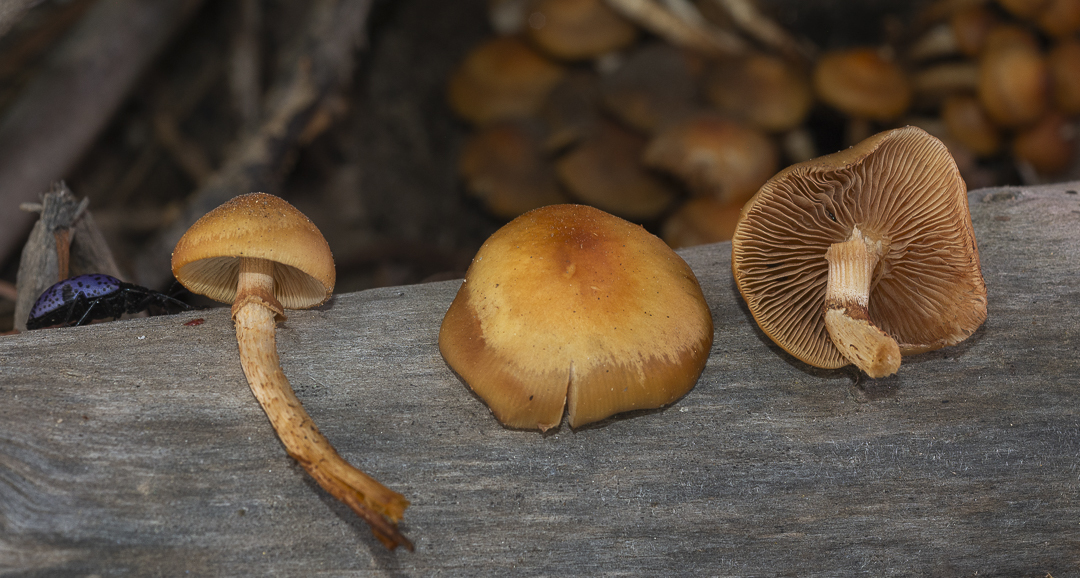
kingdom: Fungi
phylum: Basidiomycota
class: Agaricomycetes
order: Agaricales
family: Strophariaceae
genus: Kuehneromyces
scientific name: Kuehneromyces mutabilis
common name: Sheathed woodtuft
